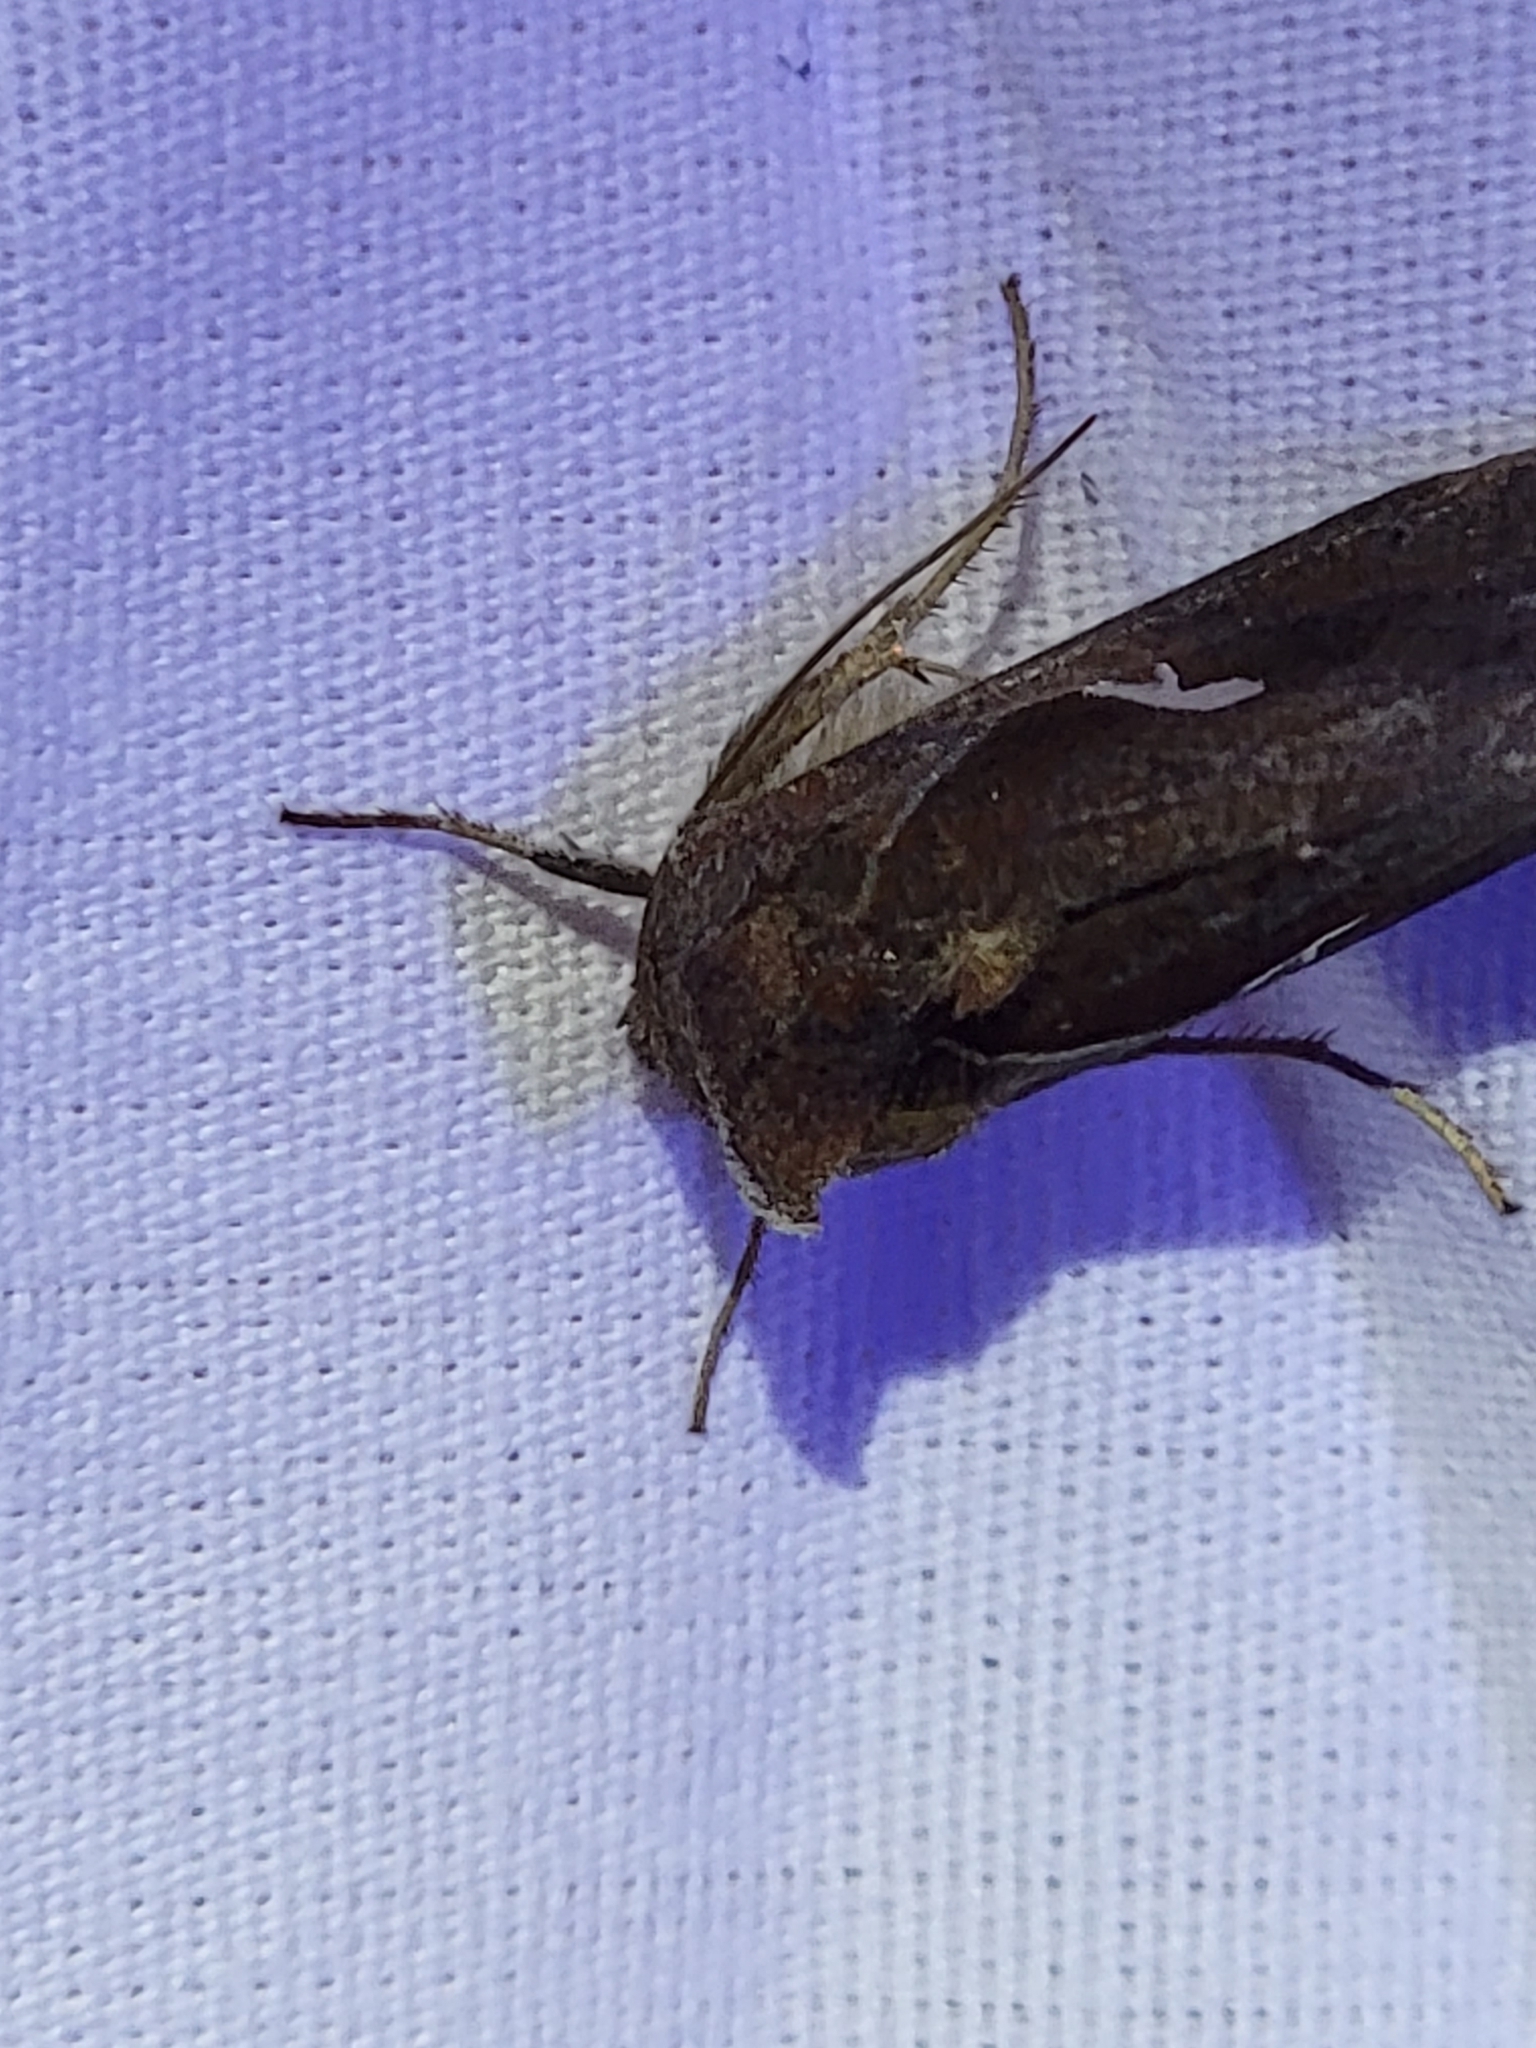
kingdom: Animalia
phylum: Arthropoda
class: Insecta
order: Lepidoptera
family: Noctuidae
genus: Anagrapha
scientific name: Anagrapha falcifera
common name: Celery looper
